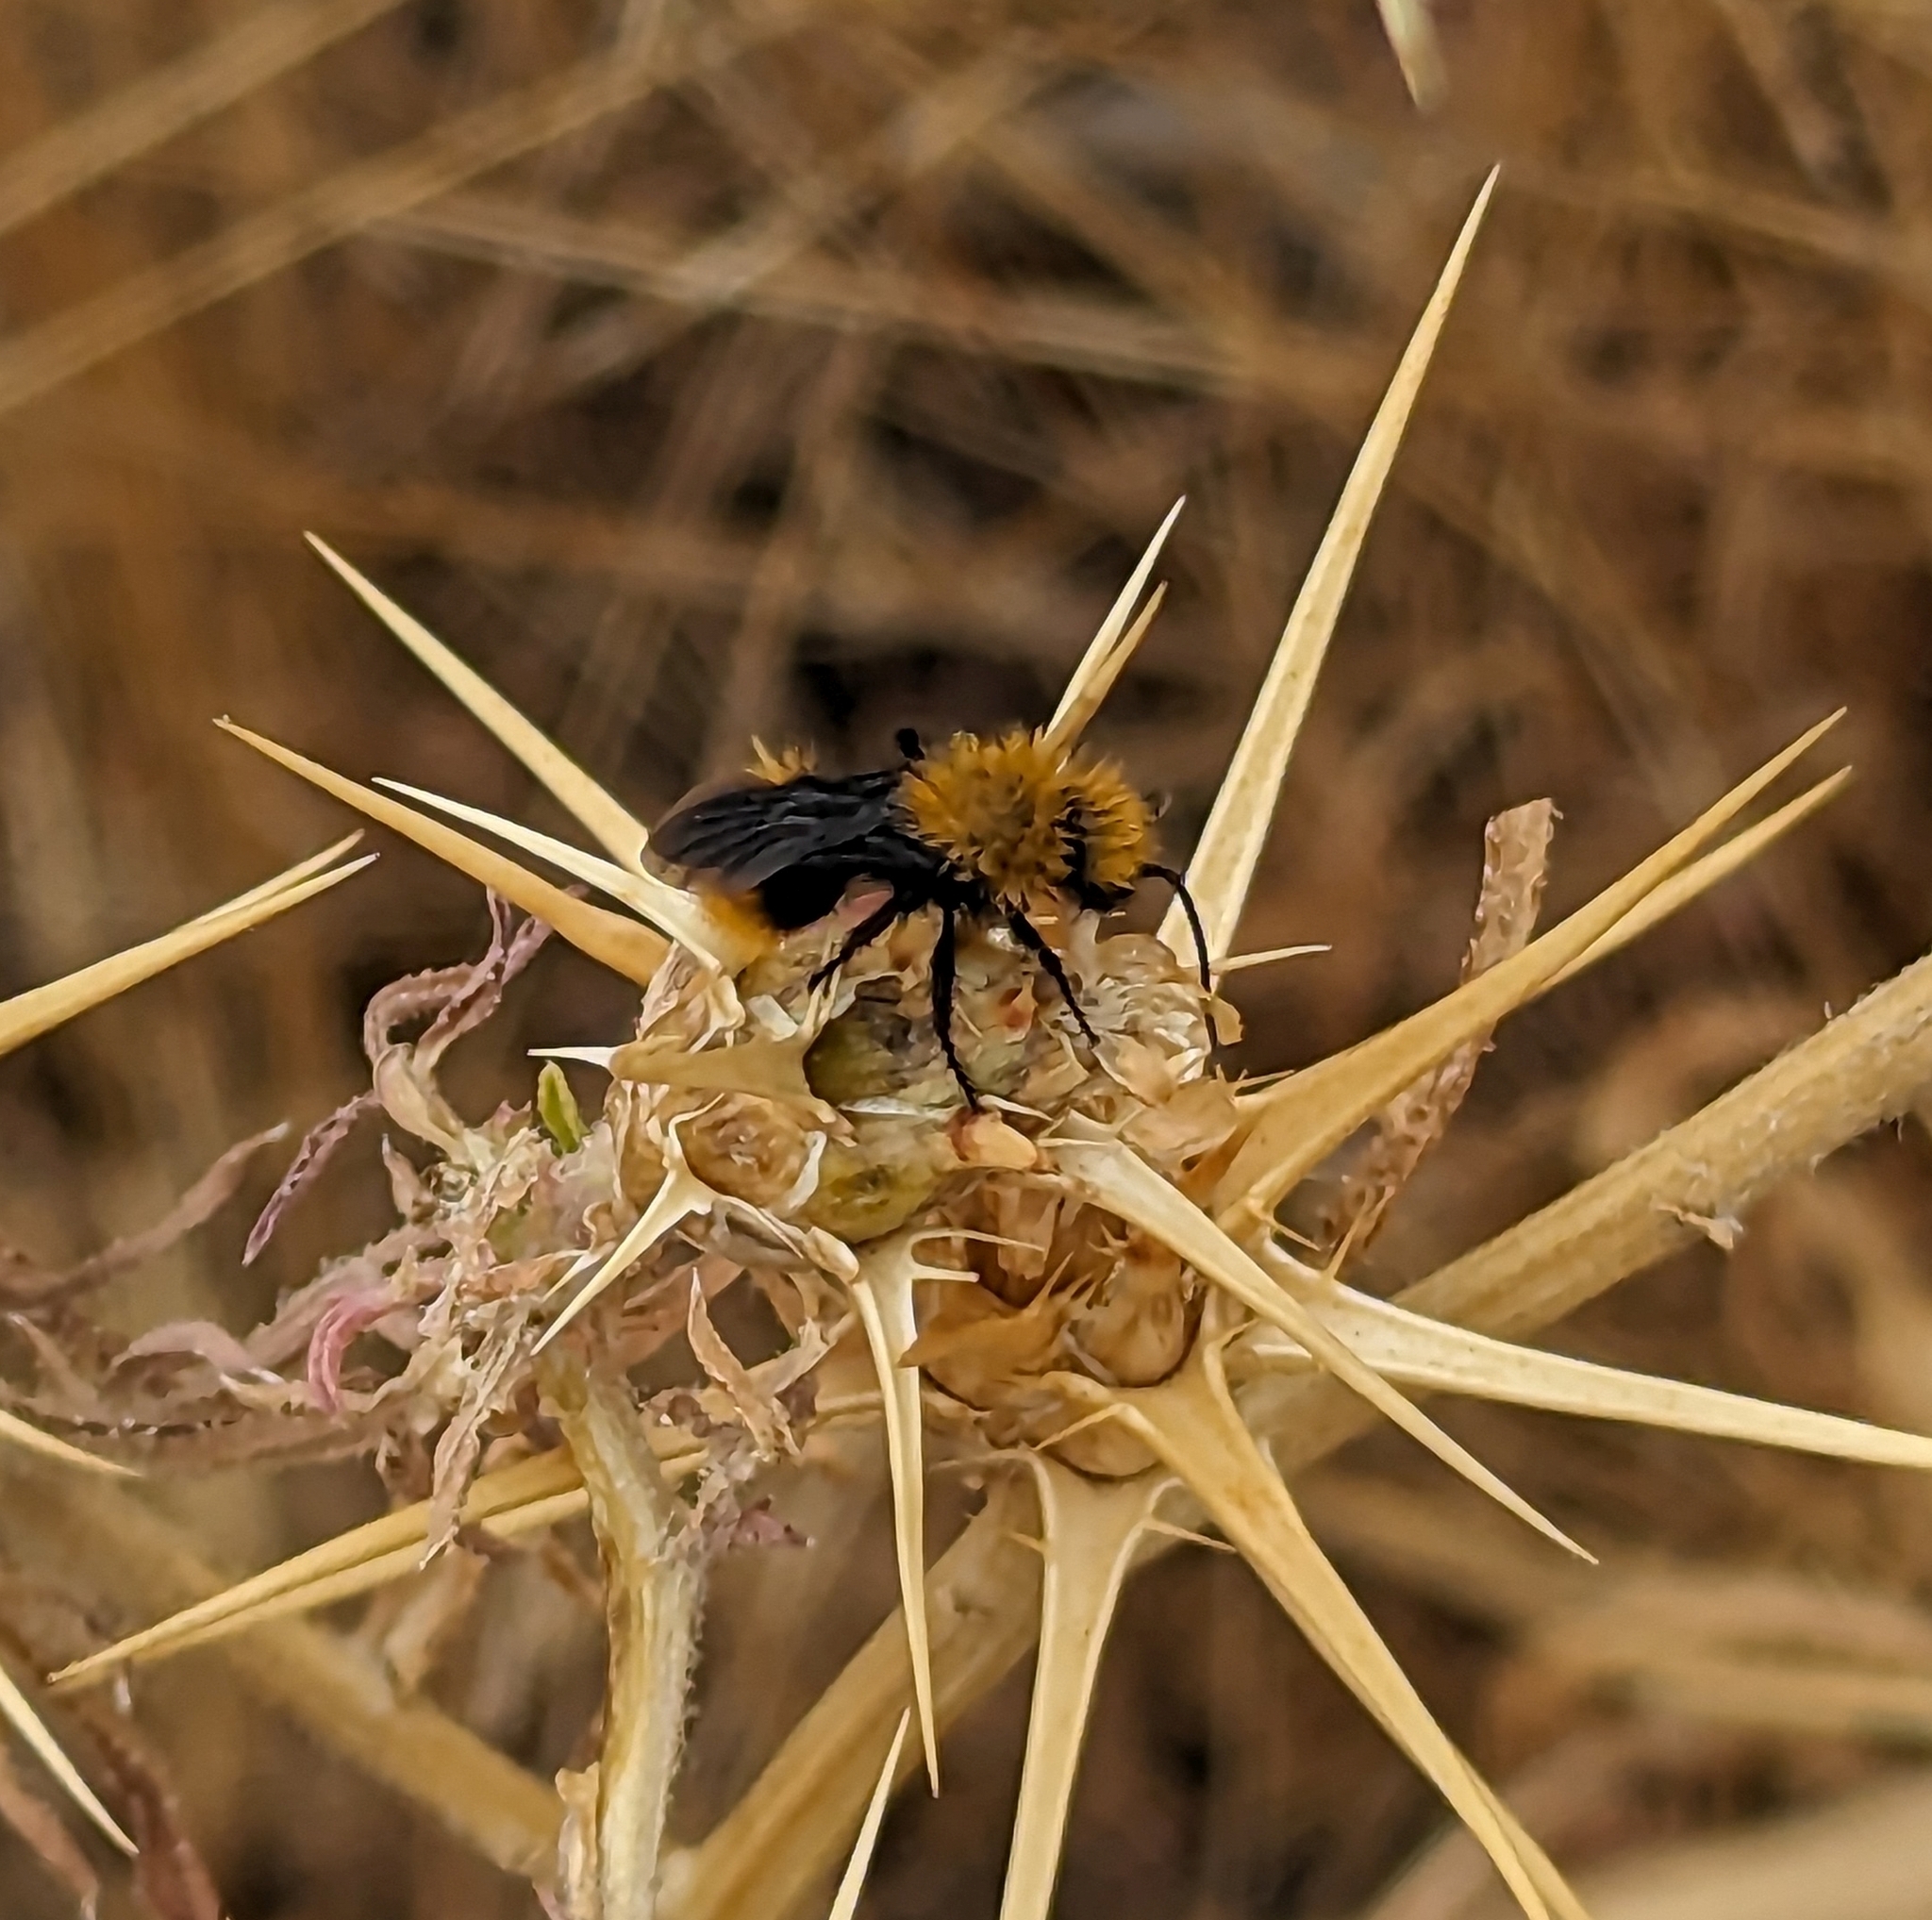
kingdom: Animalia
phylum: Arthropoda
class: Insecta
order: Hymenoptera
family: Mutillidae
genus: Dasymutilla
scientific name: Dasymutilla
